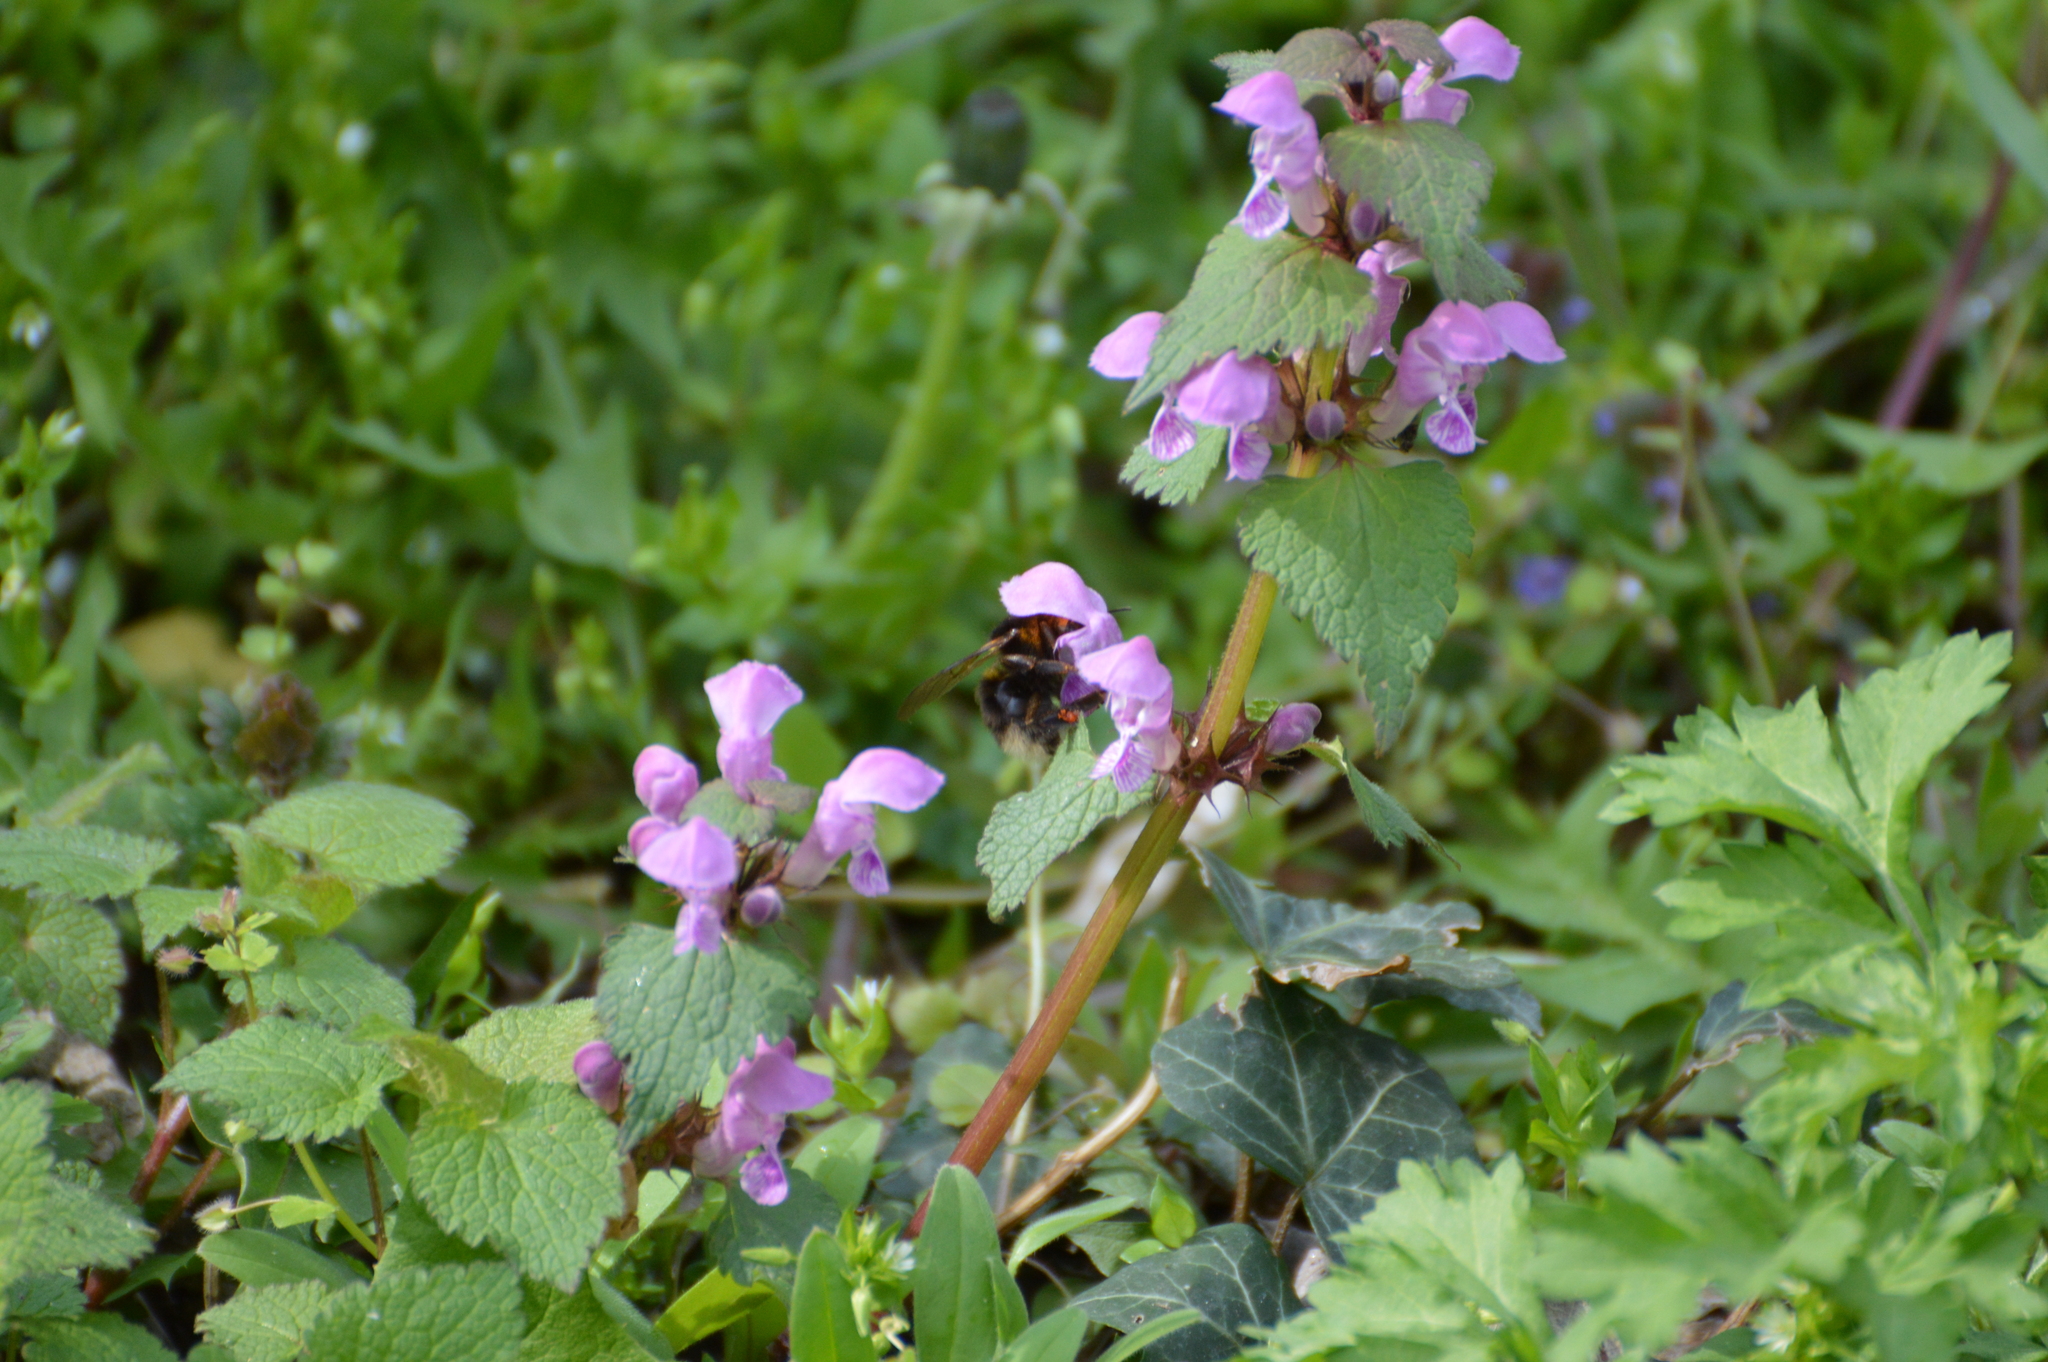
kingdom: Plantae
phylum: Tracheophyta
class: Magnoliopsida
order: Lamiales
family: Lamiaceae
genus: Lamium
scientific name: Lamium purpureum
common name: Red dead-nettle
